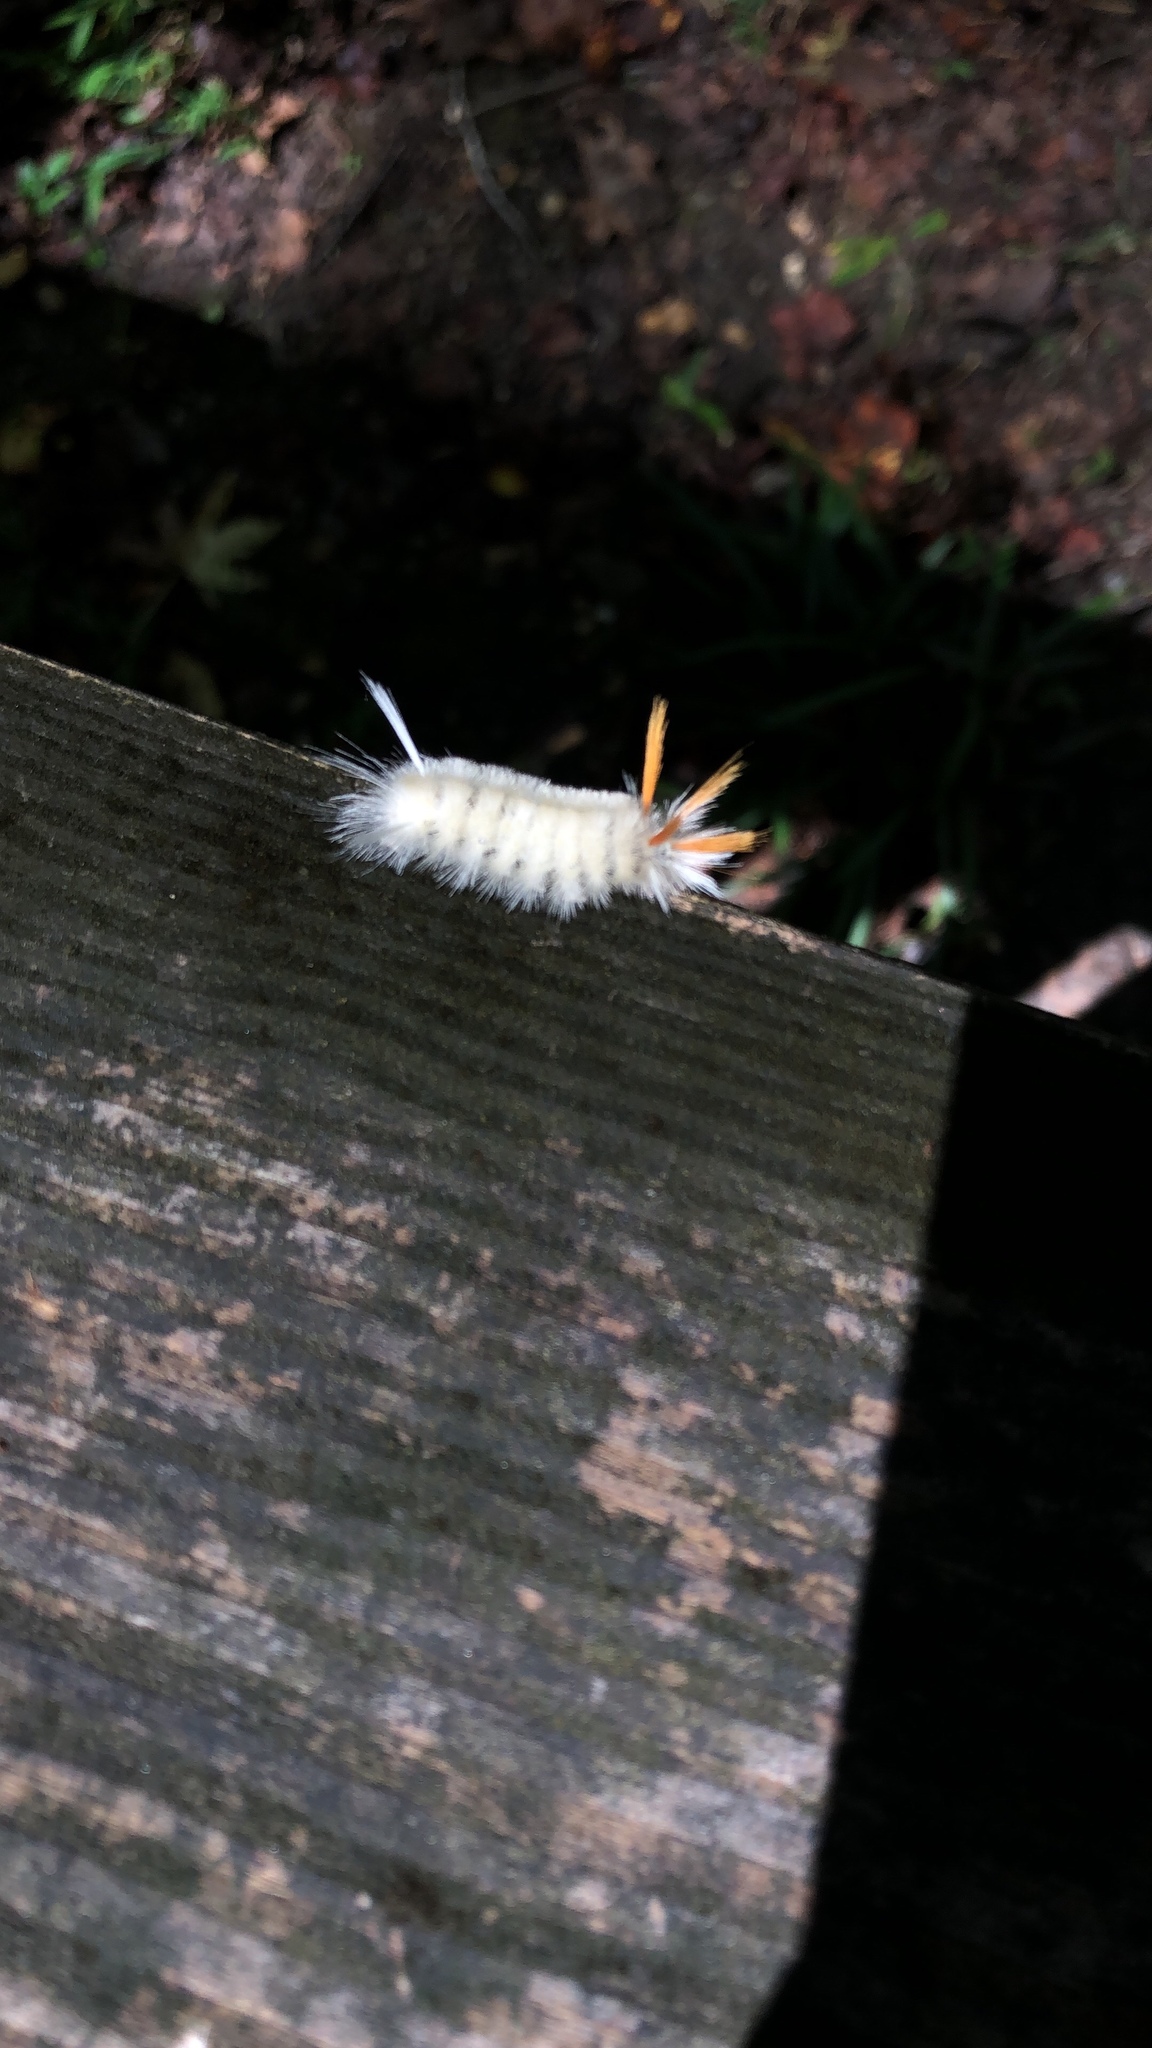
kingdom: Animalia
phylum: Arthropoda
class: Insecta
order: Lepidoptera
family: Erebidae
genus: Halysidota
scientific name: Halysidota harrisii
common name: Sycamore tussock moth
